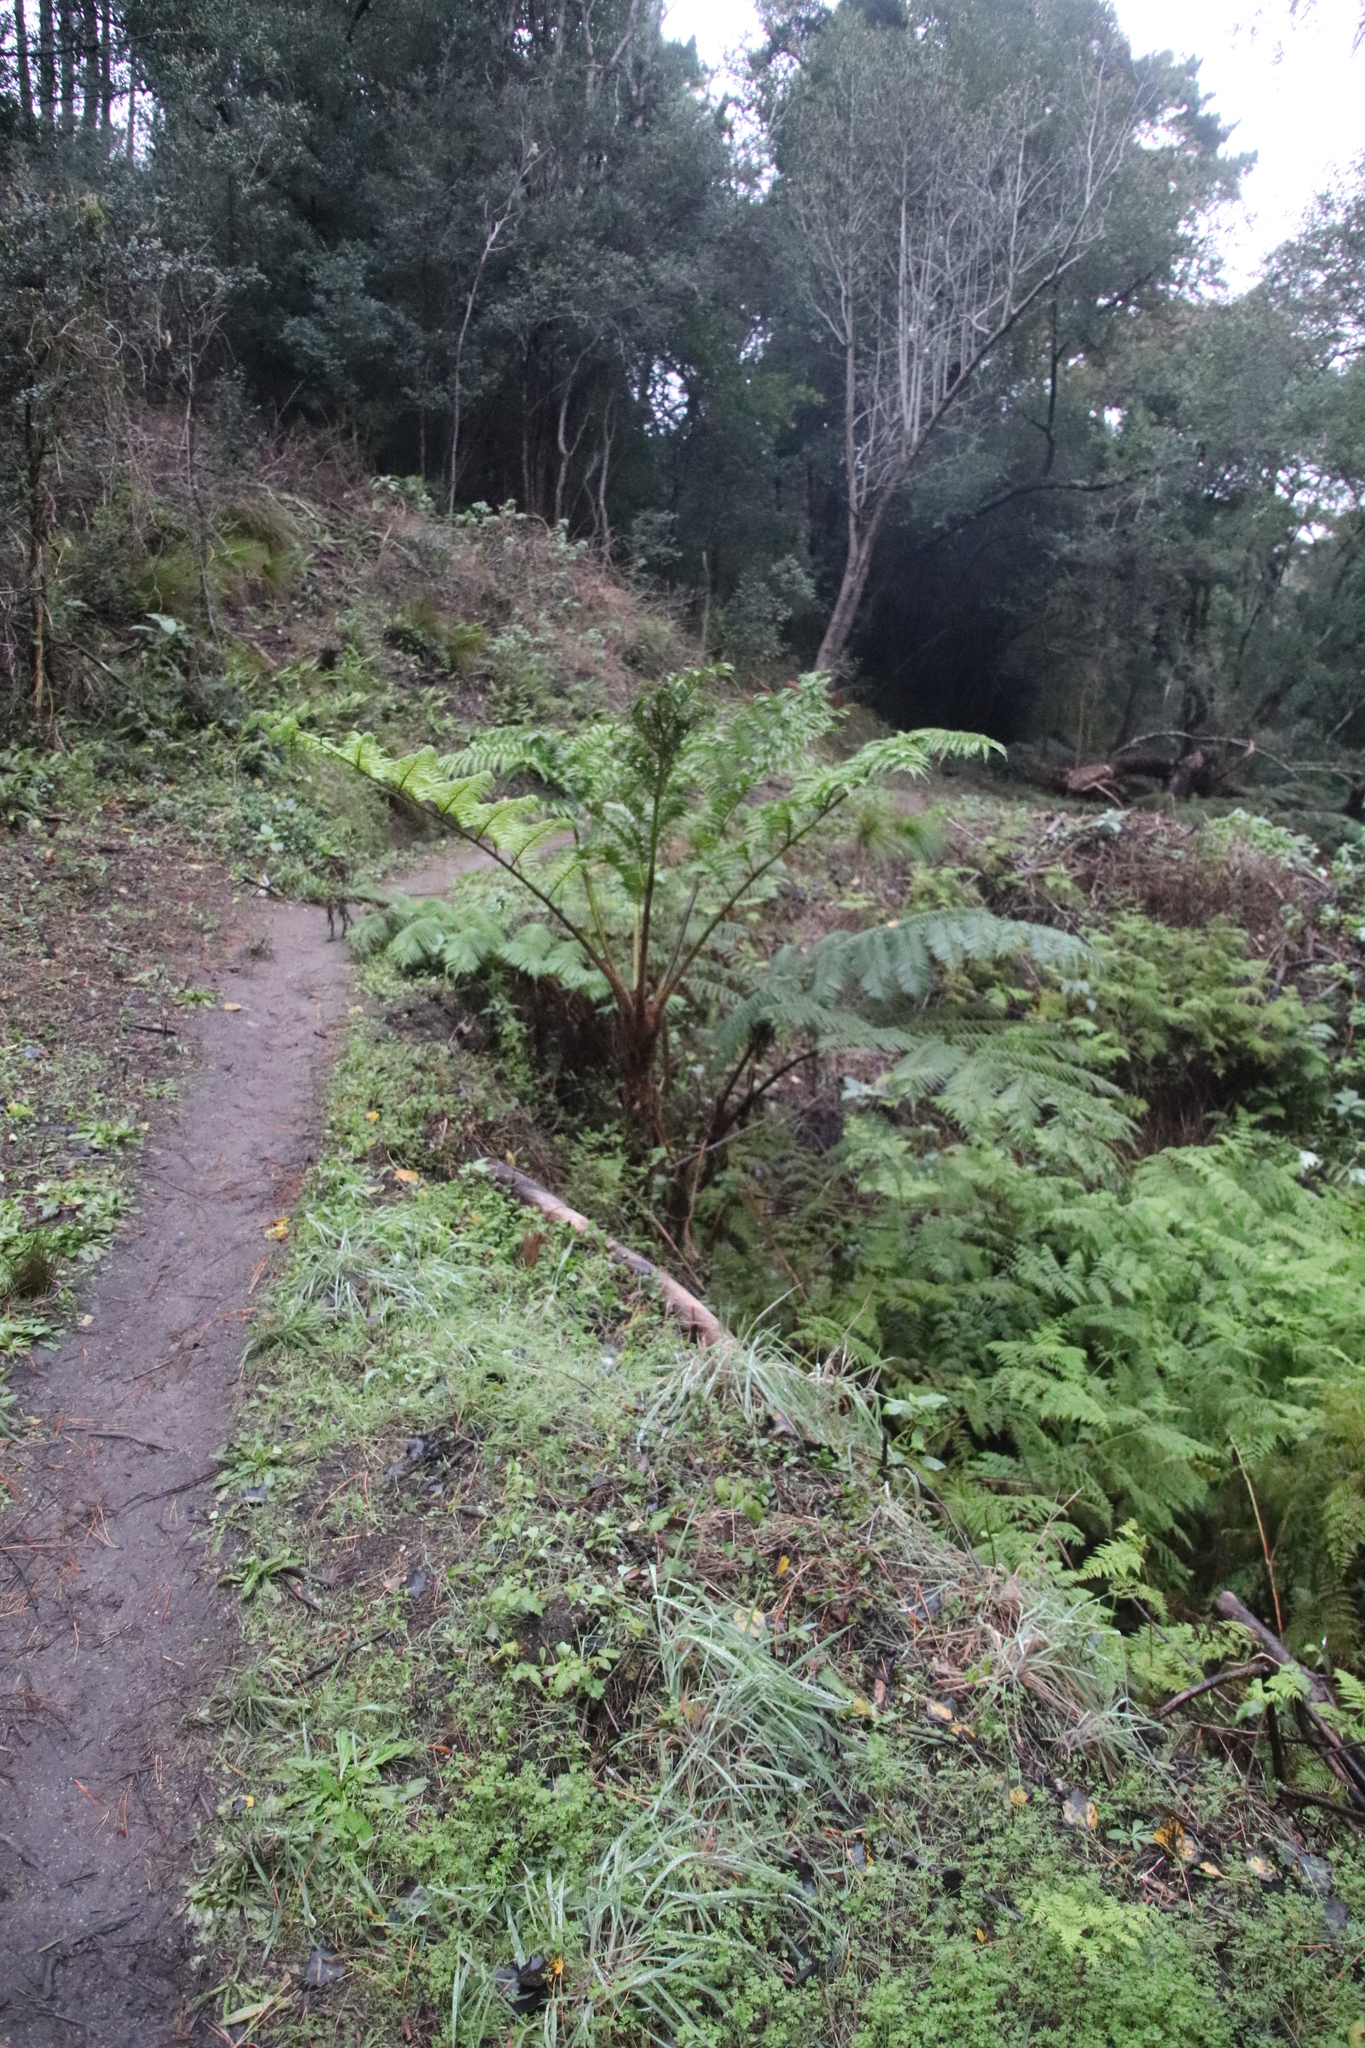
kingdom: Plantae
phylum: Tracheophyta
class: Polypodiopsida
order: Cyatheales
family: Cyatheaceae
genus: Sphaeropteris
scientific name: Sphaeropteris cooperi
